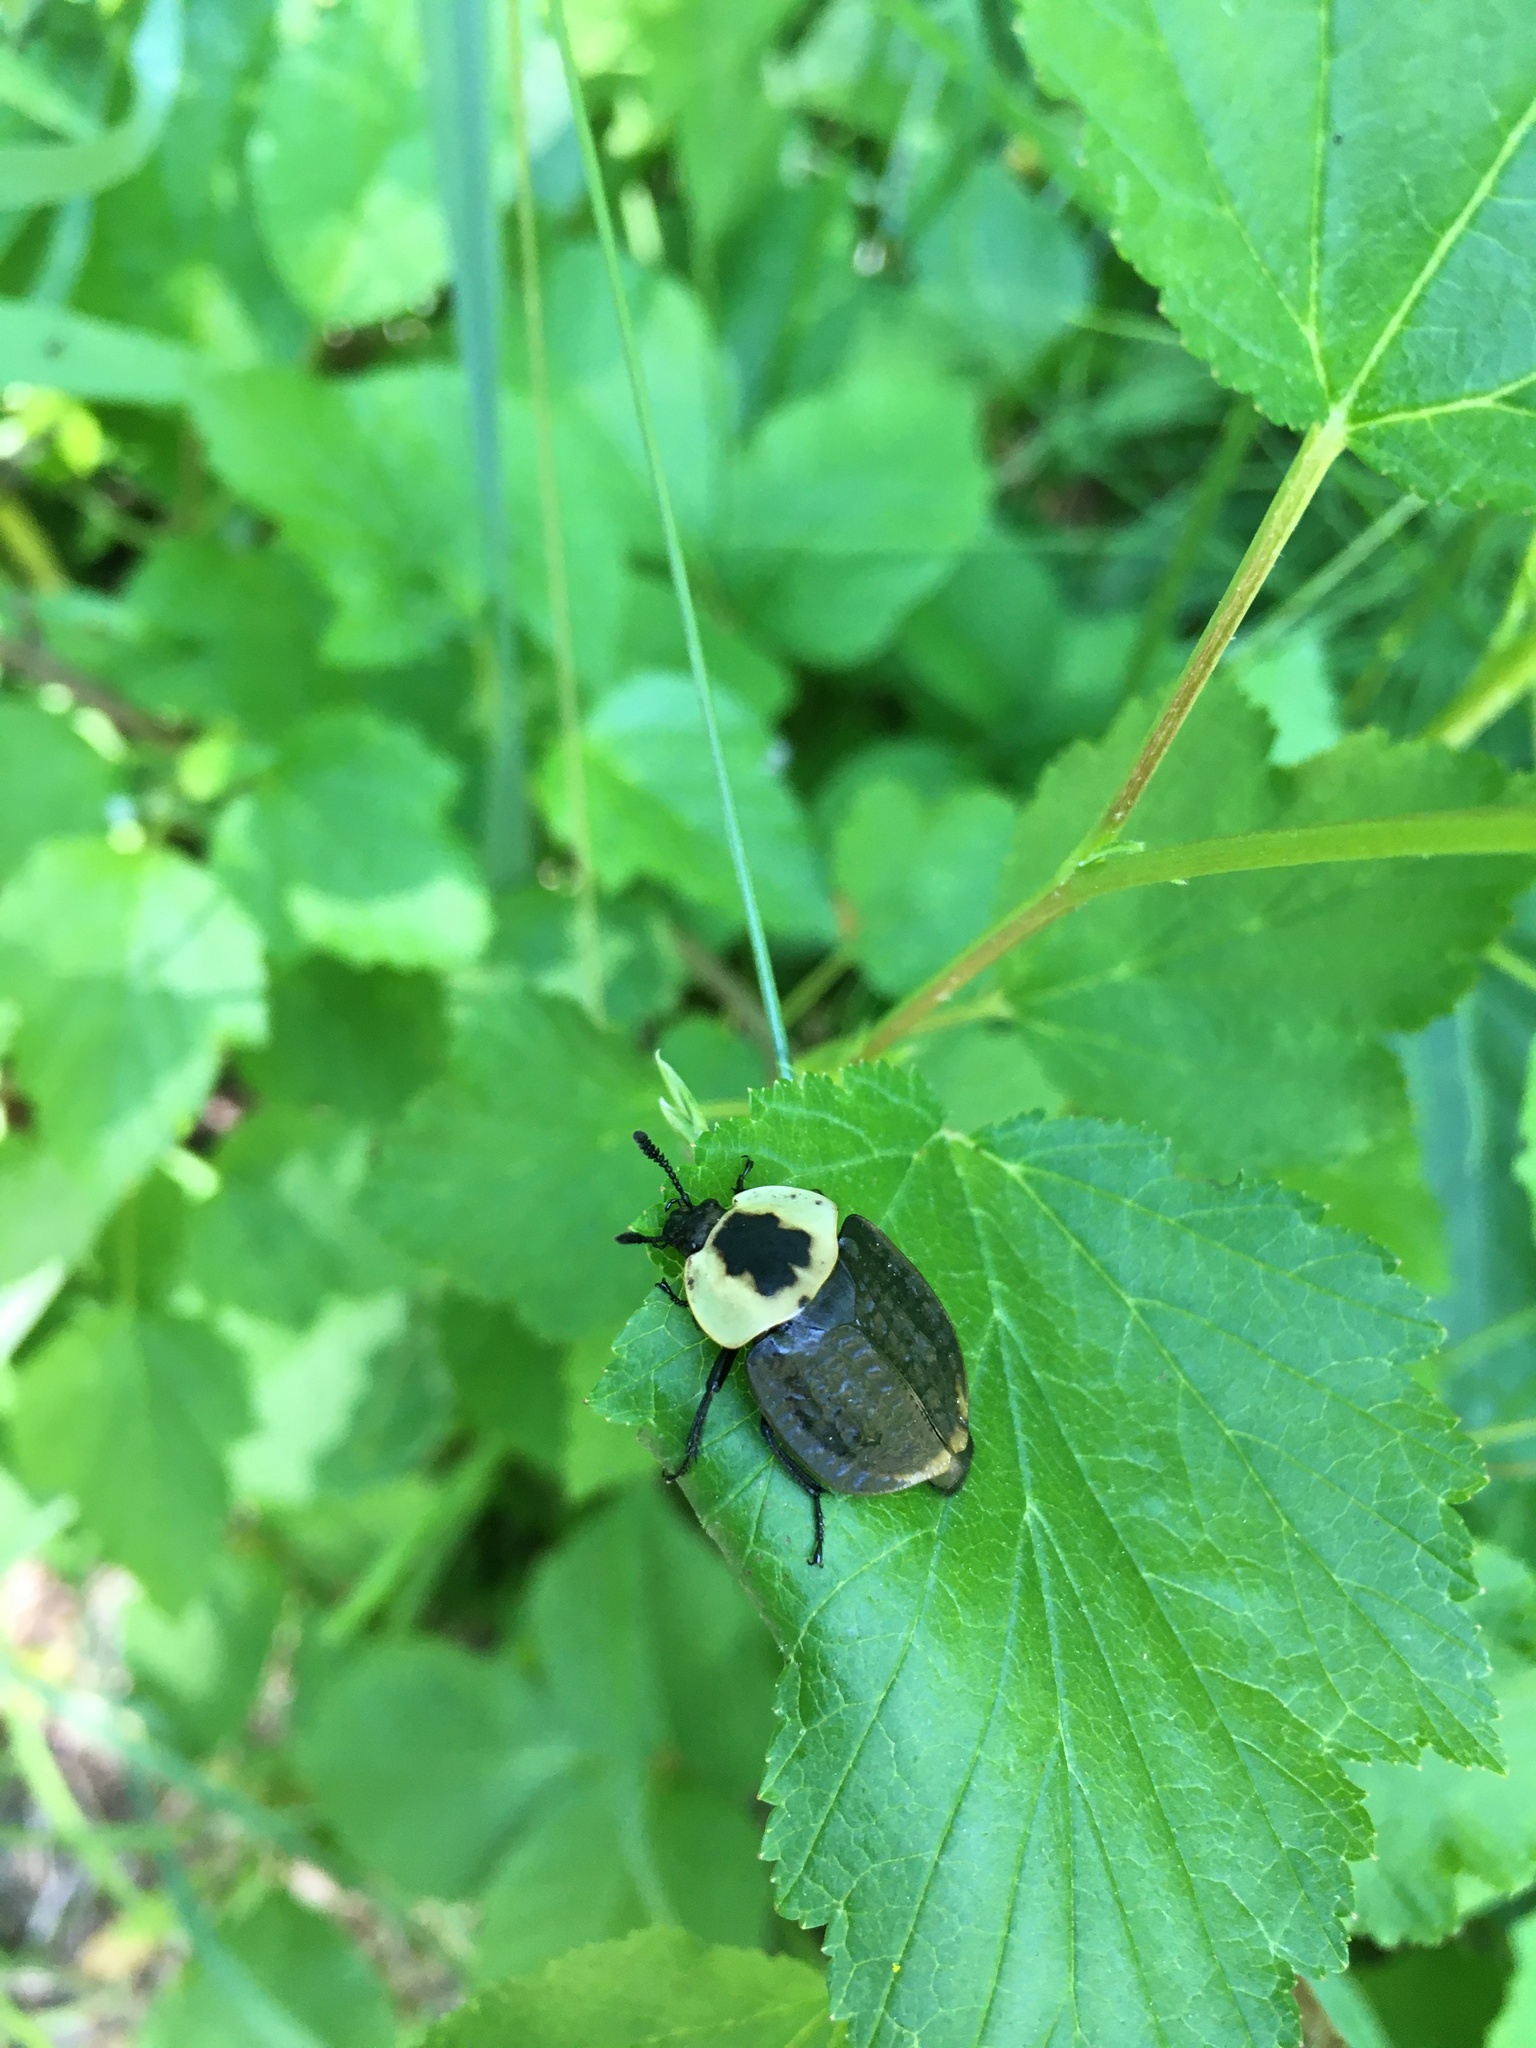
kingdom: Animalia
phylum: Arthropoda
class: Insecta
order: Coleoptera
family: Staphylinidae
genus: Necrophila
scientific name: Necrophila americana
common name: American carrion beetle
